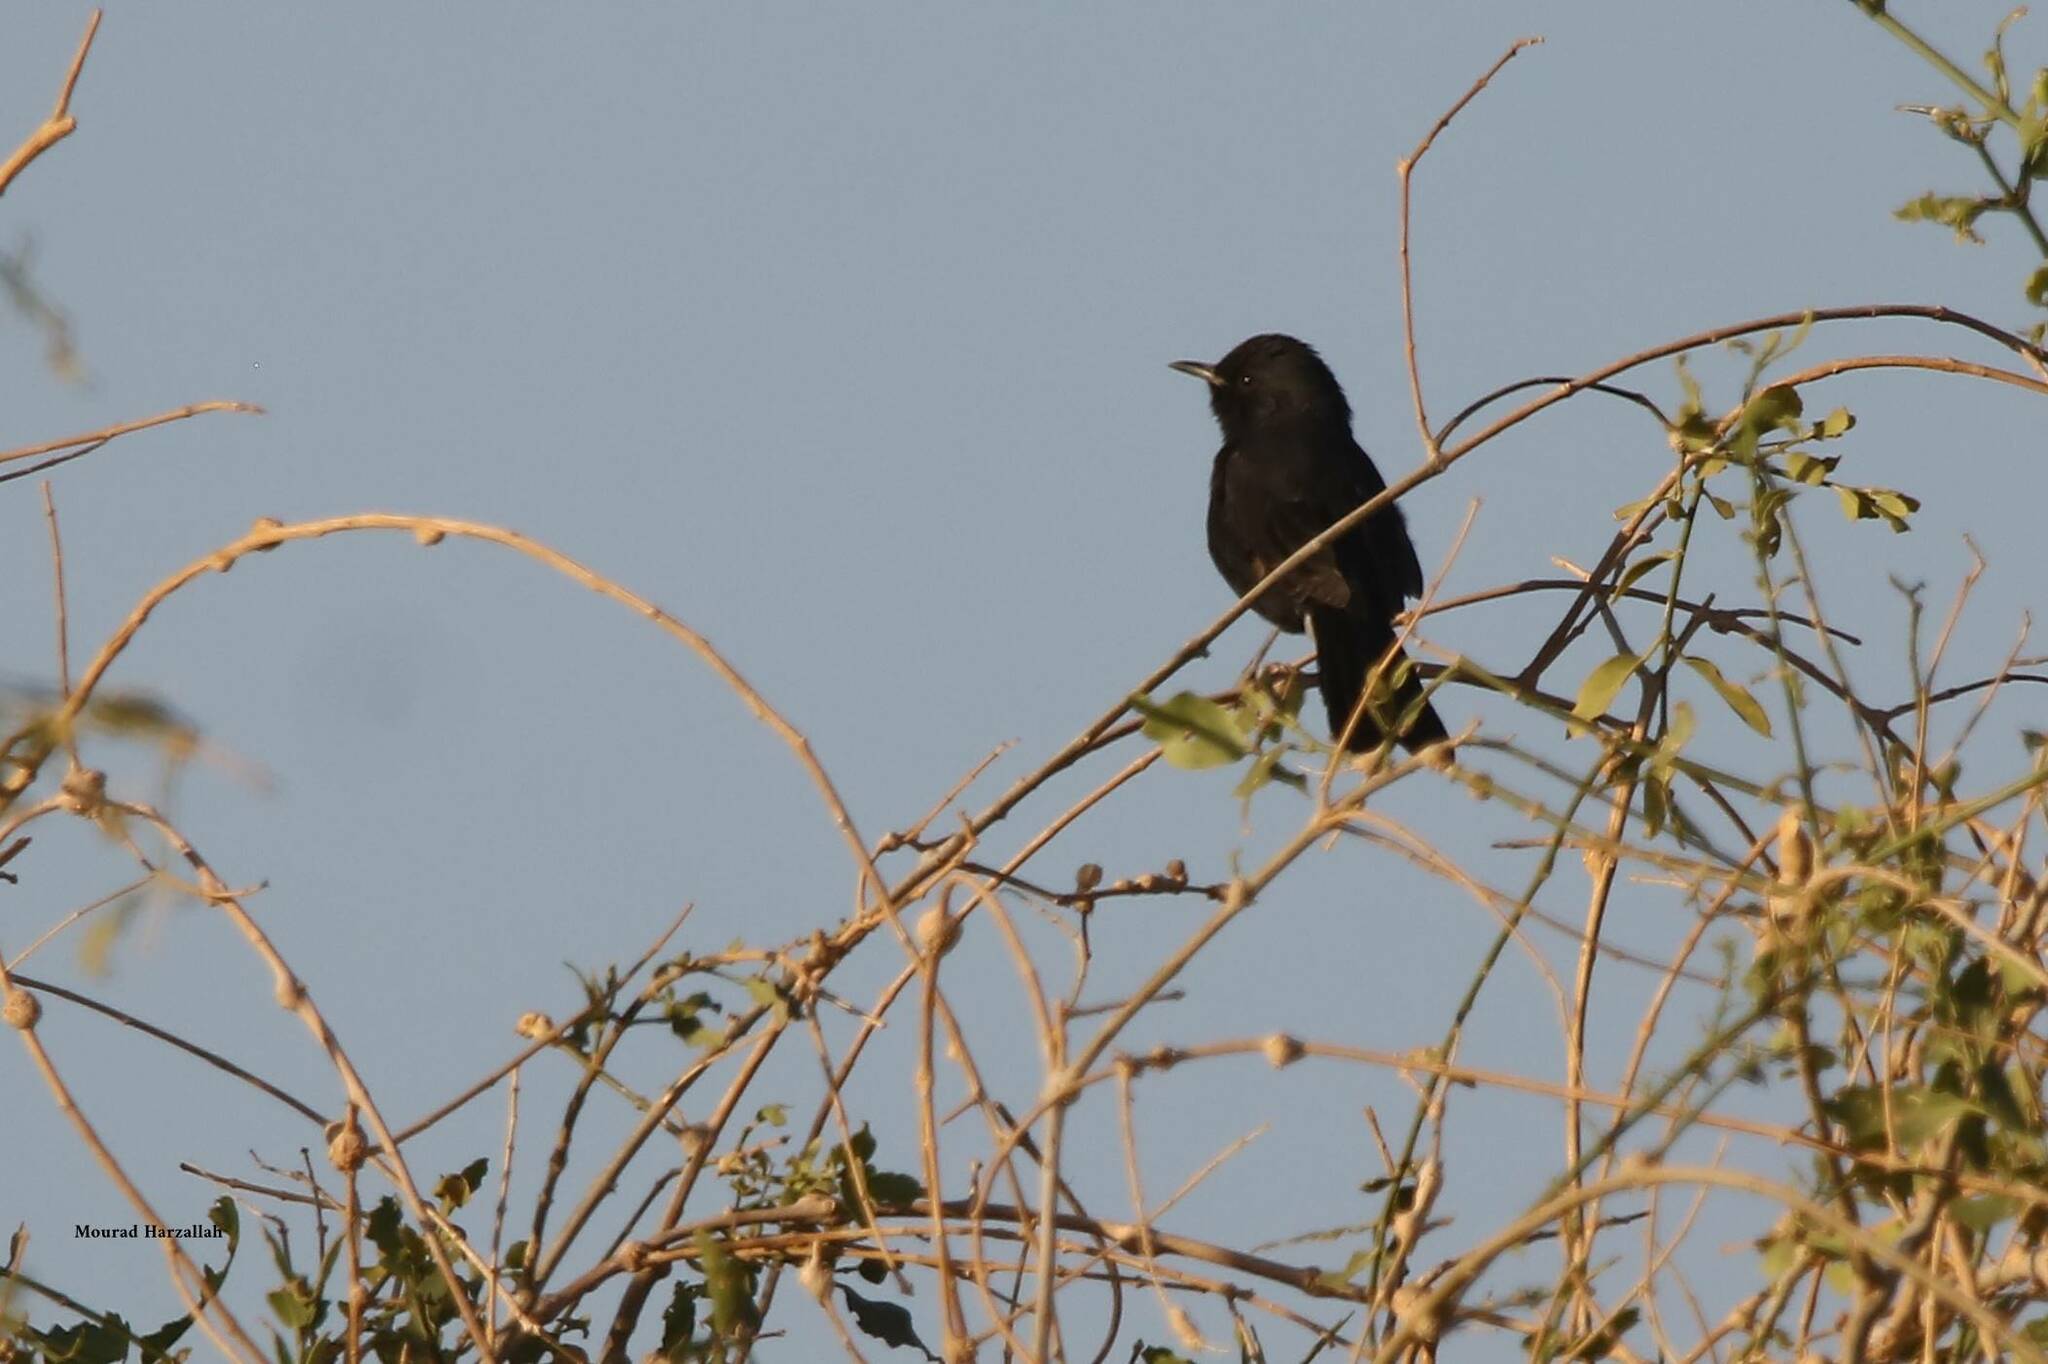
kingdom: Animalia
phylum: Chordata
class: Aves
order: Passeriformes
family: Muscicapidae
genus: Cercotrichas
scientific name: Cercotrichas podobe
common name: Black scrub robin
